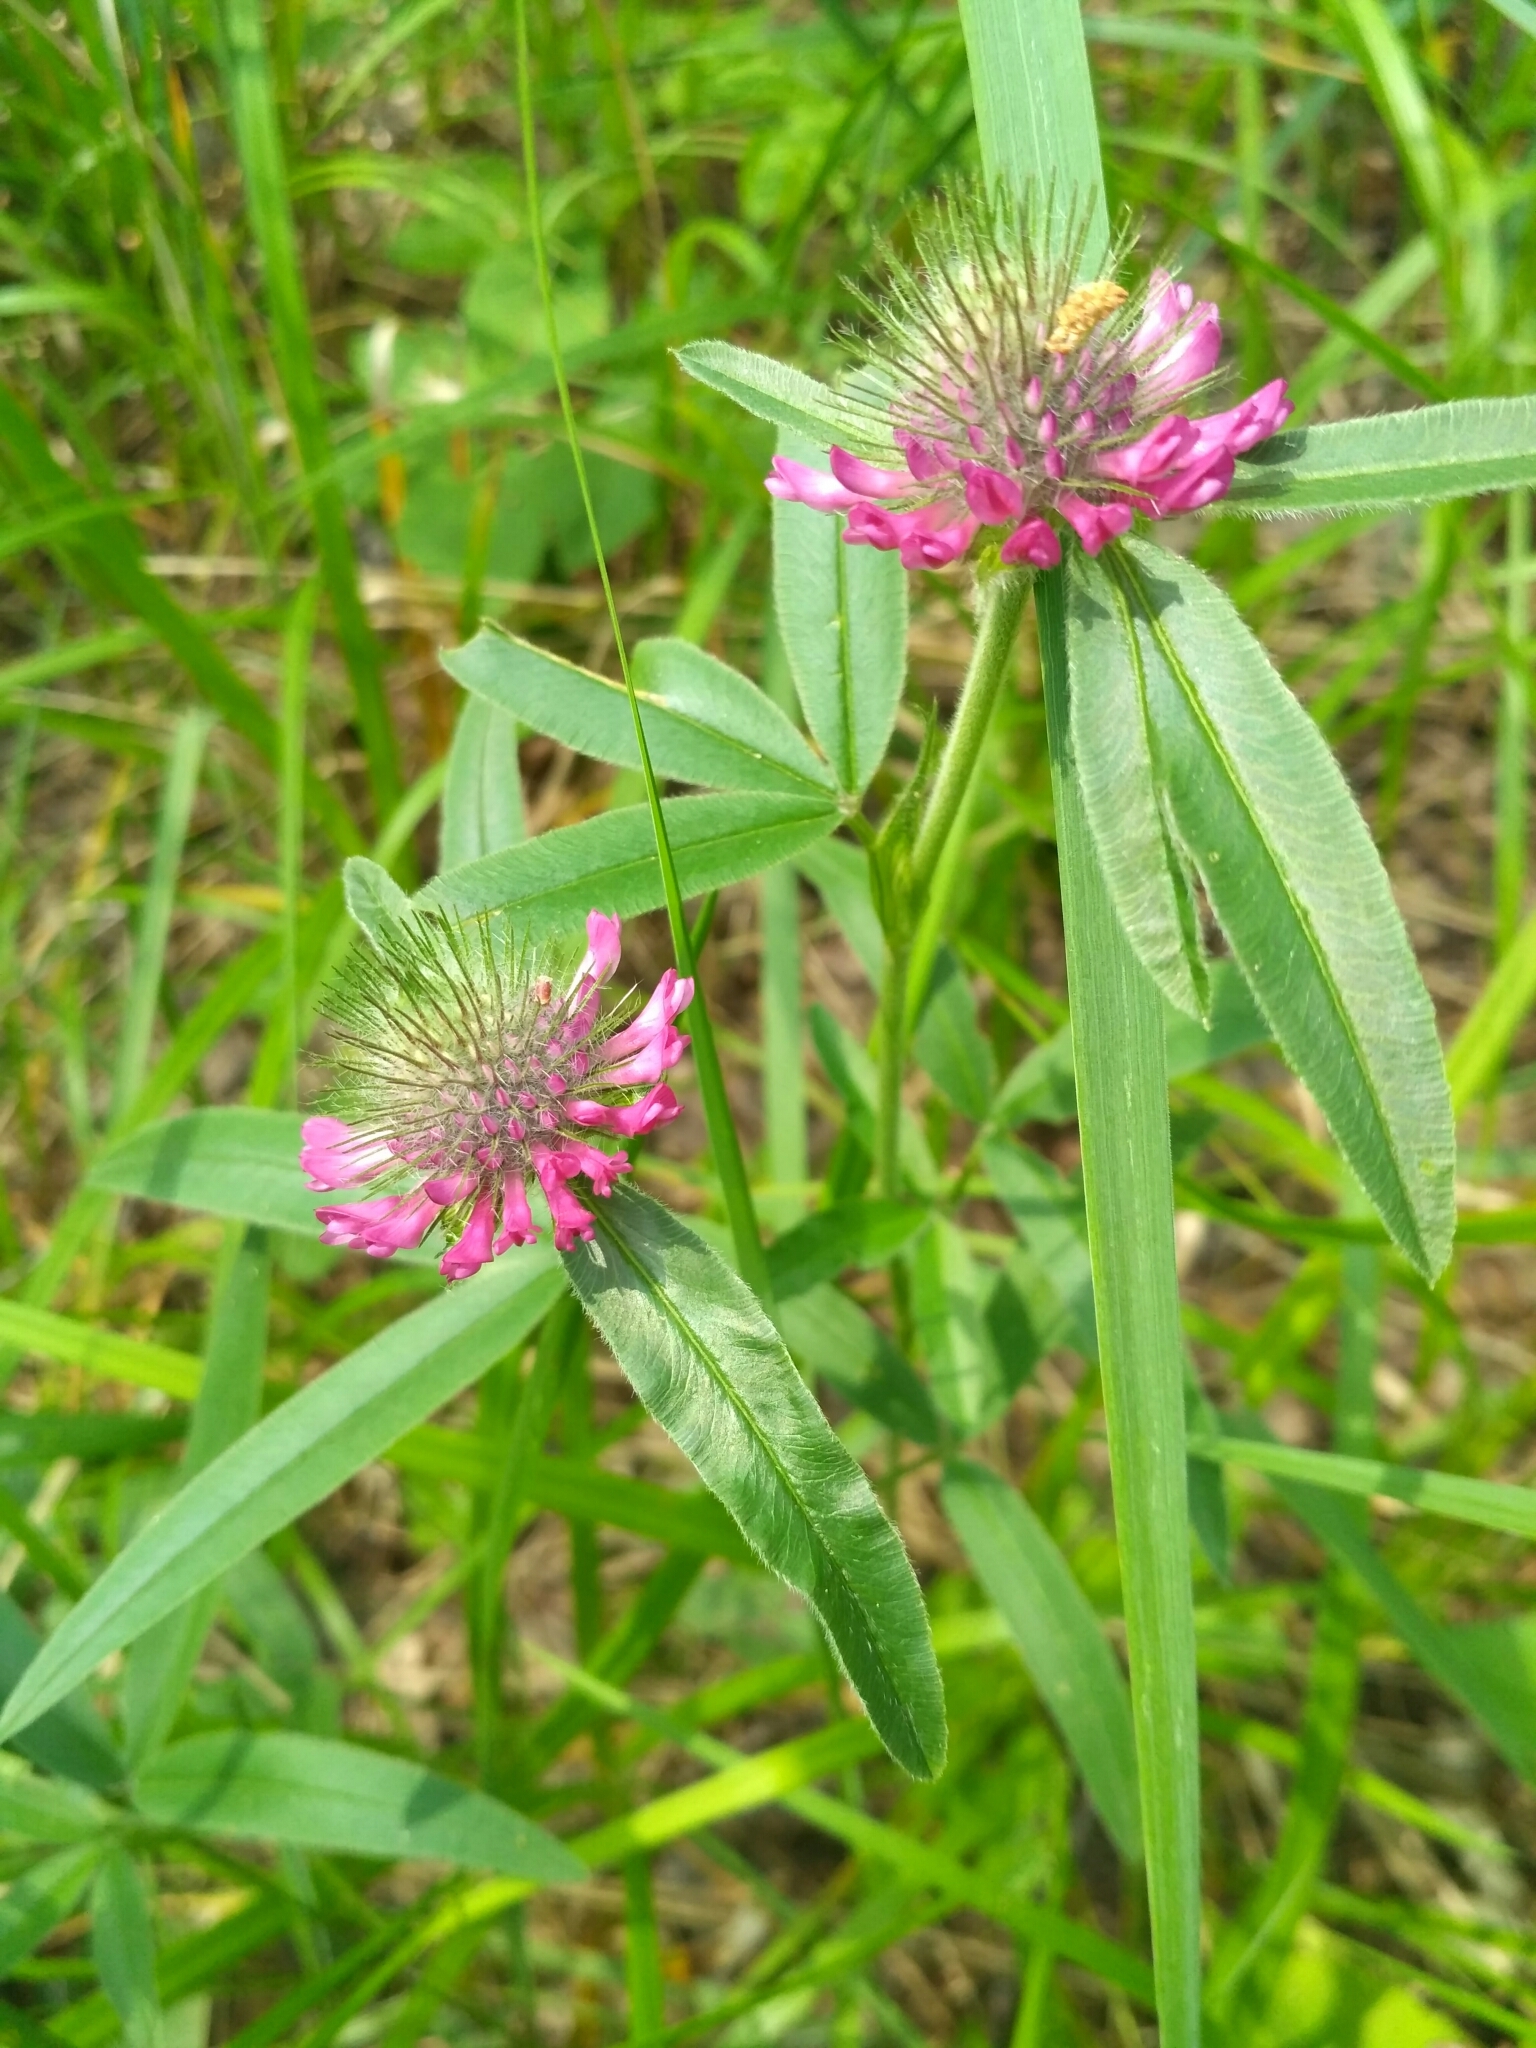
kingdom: Plantae
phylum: Tracheophyta
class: Magnoliopsida
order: Fabales
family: Fabaceae
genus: Trifolium
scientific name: Trifolium alpestre
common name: Owl-head clover
